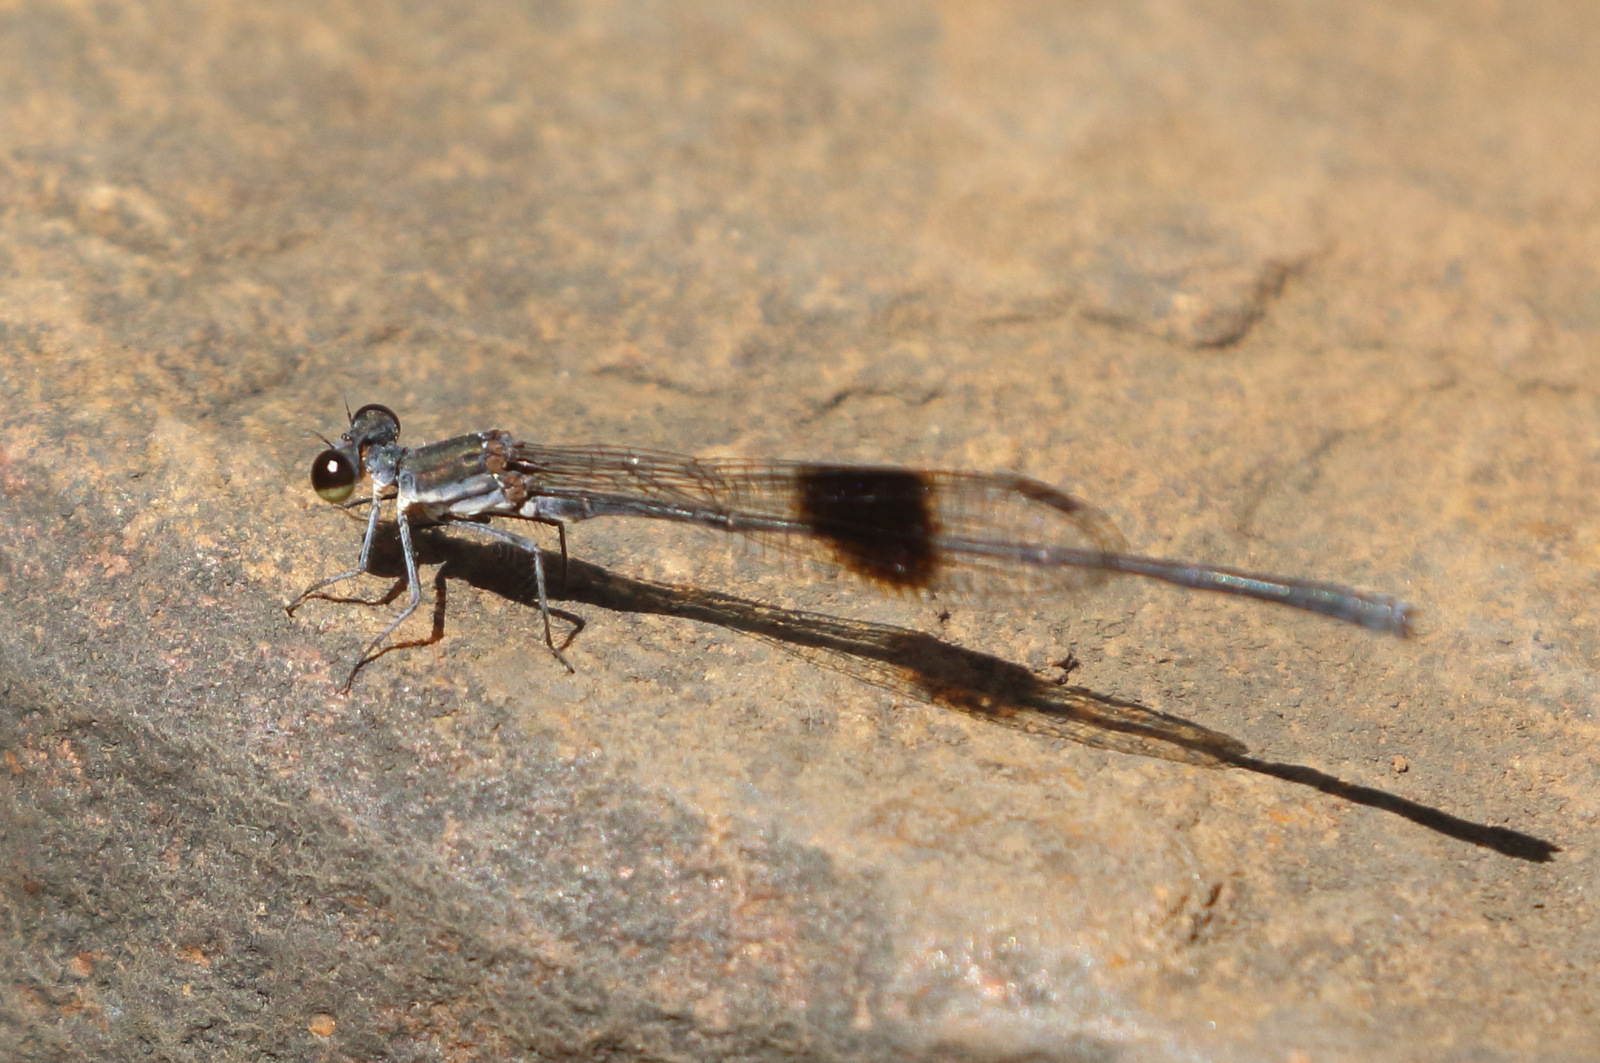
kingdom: Animalia
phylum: Arthropoda
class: Insecta
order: Odonata
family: Platycnemididae
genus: Nososticta
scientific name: Nososticta kalumburu
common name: Spot-winged threadtail
